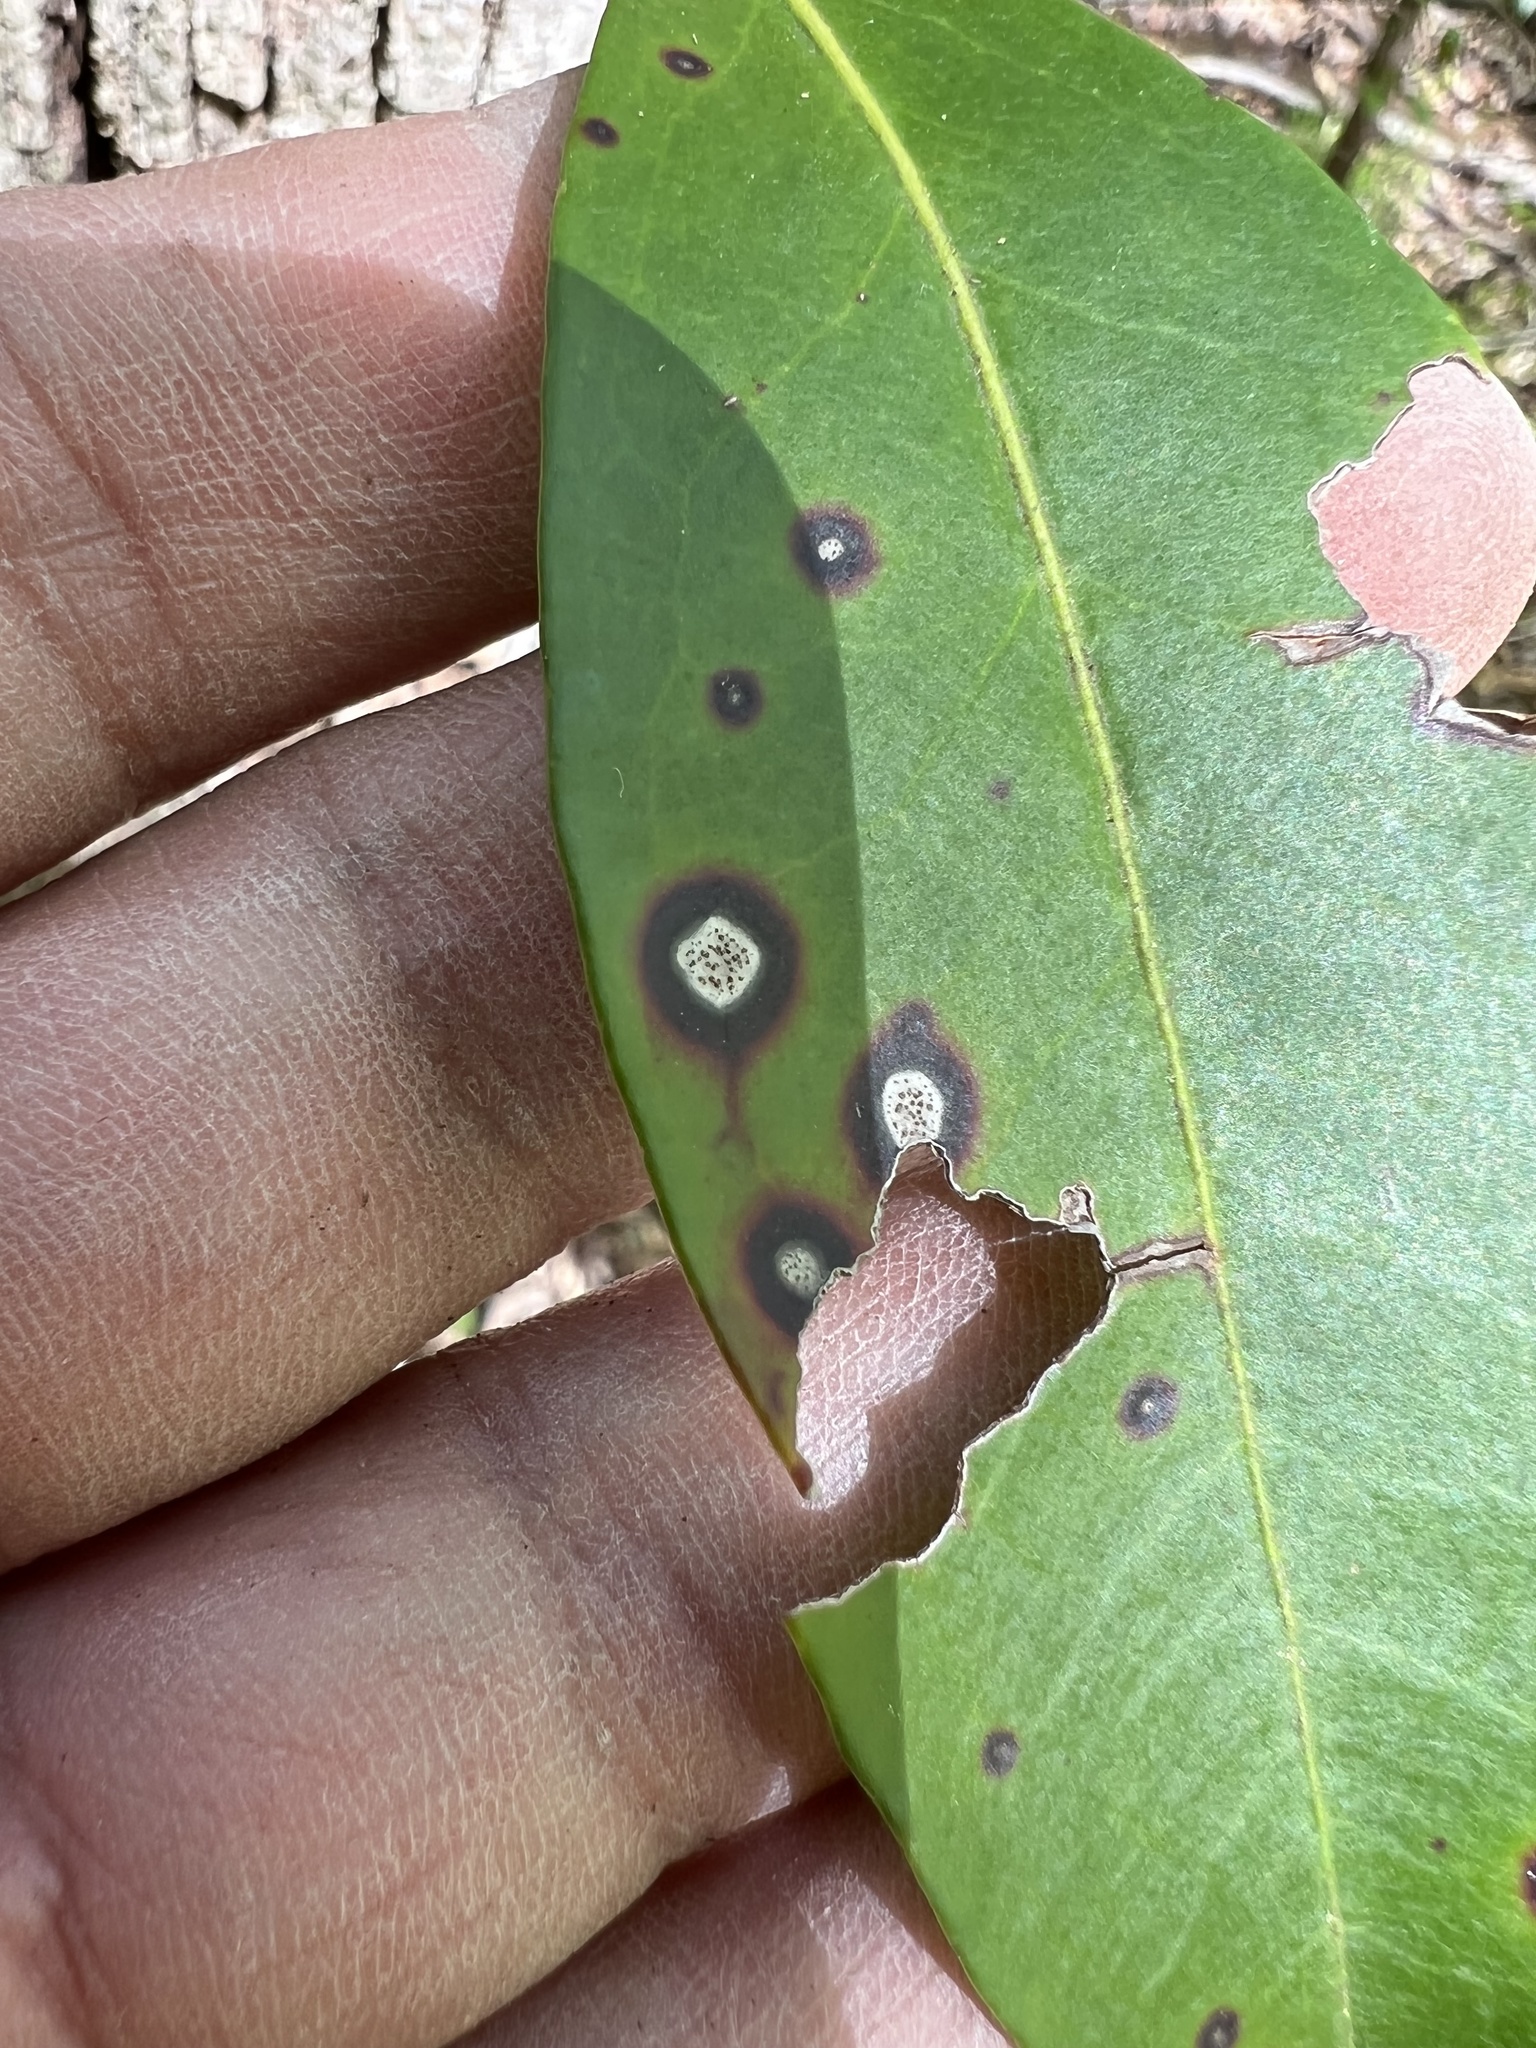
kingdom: Plantae
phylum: Tracheophyta
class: Magnoliopsida
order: Ericales
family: Ericaceae
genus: Kalmia
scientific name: Kalmia latifolia
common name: Mountain-laurel
